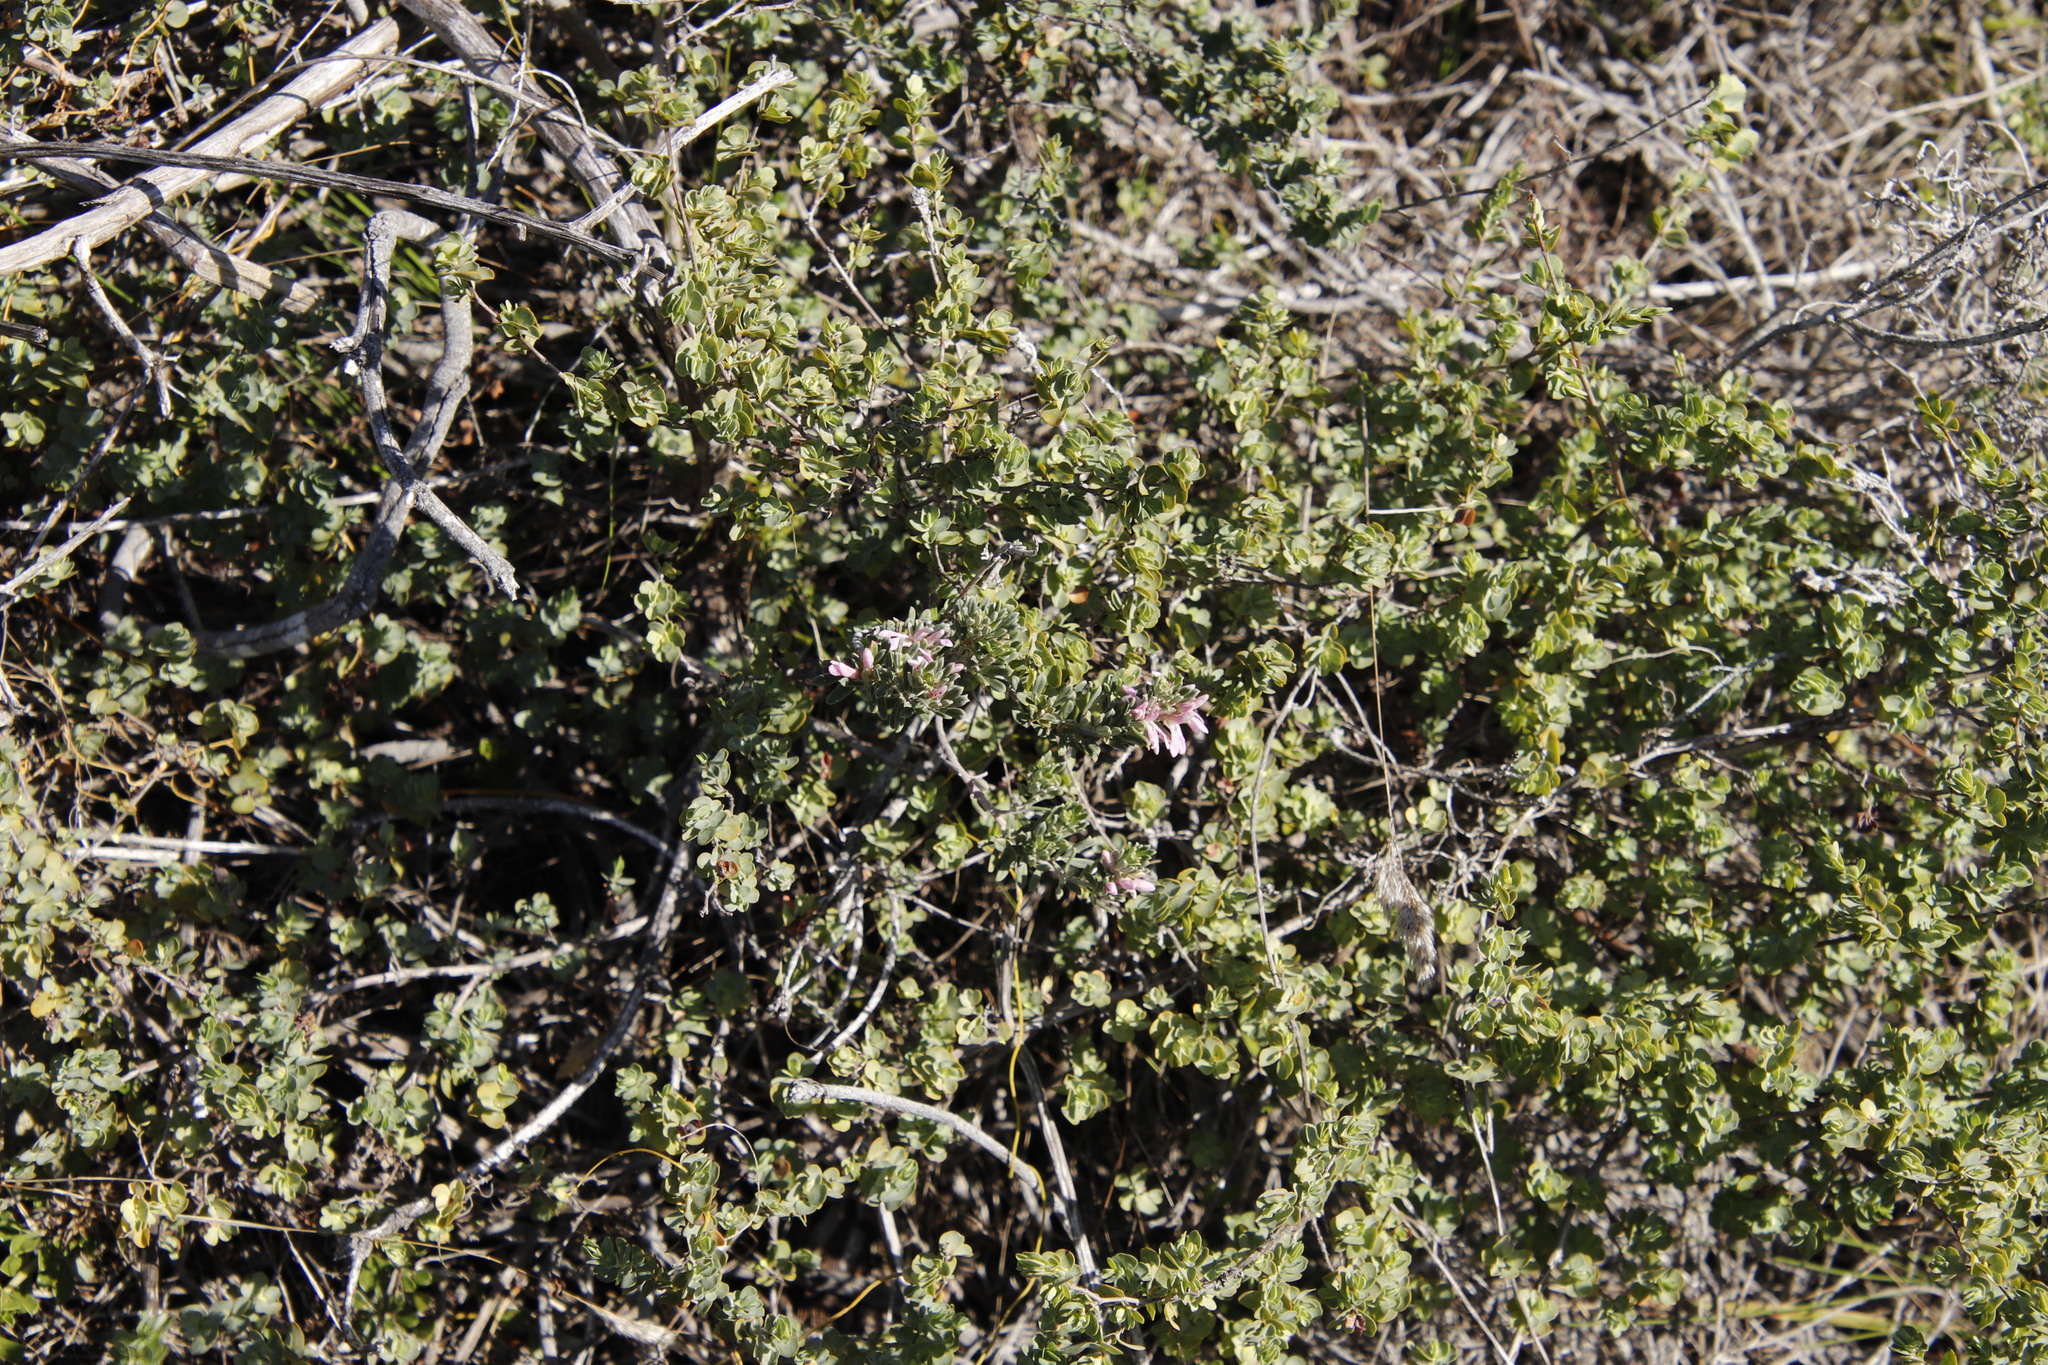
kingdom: Plantae
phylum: Tracheophyta
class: Magnoliopsida
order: Fabales
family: Fabaceae
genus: Indigofera
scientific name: Indigofera brachystachya
